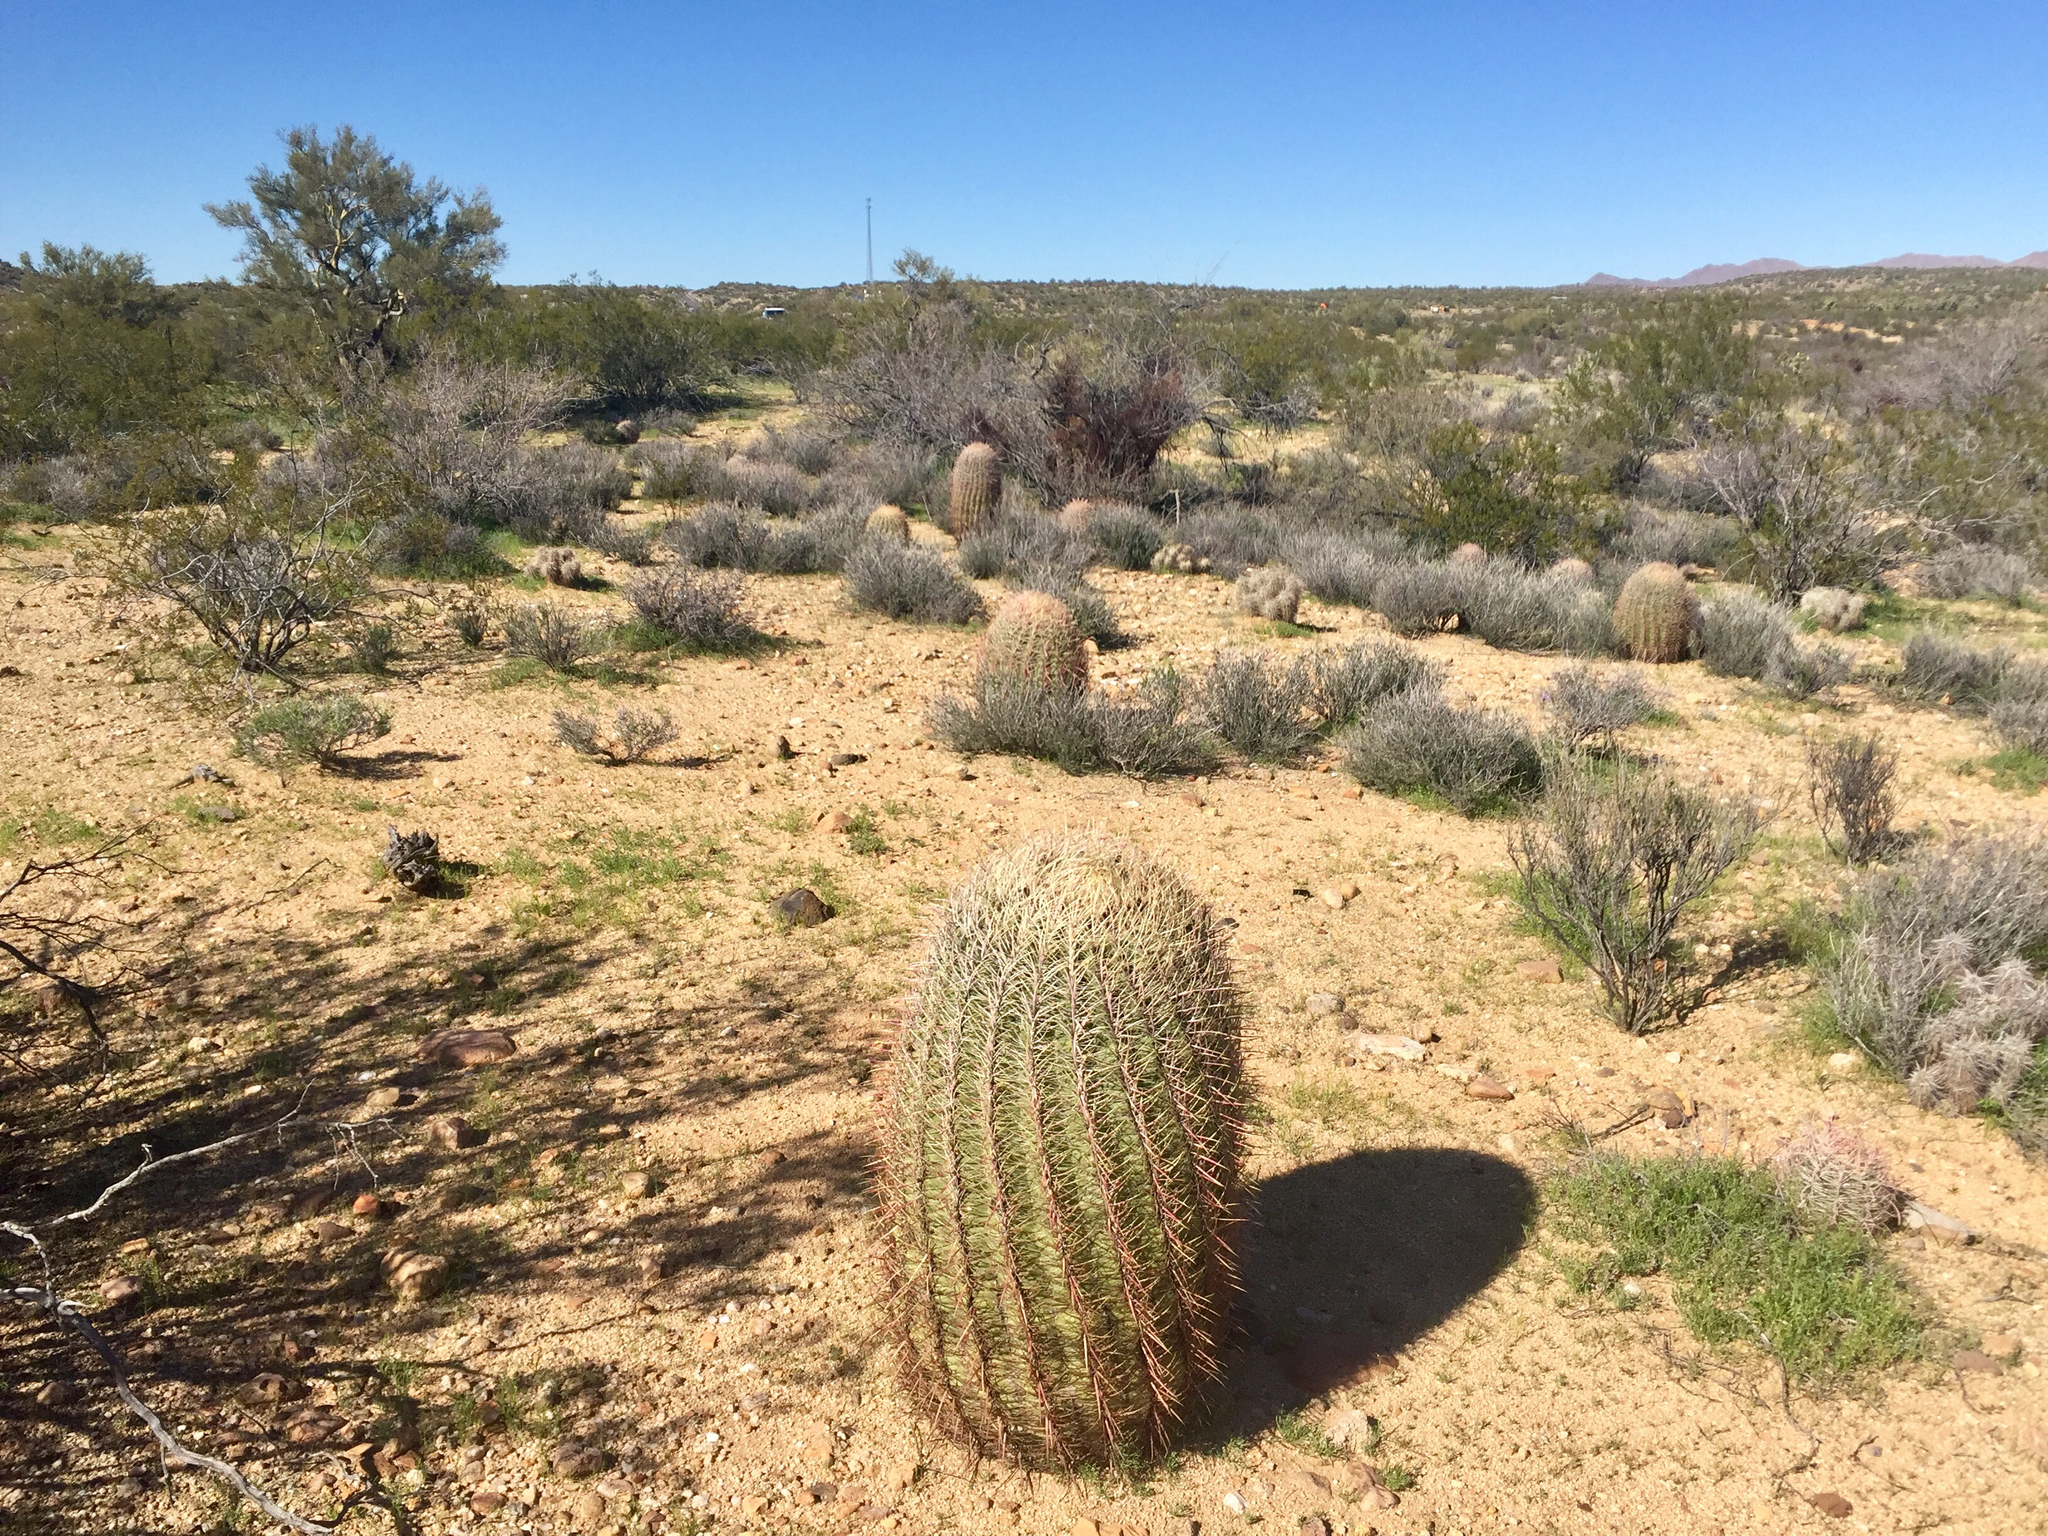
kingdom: Plantae
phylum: Tracheophyta
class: Magnoliopsida
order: Caryophyllales
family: Cactaceae
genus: Ferocactus
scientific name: Ferocactus cylindraceus
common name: California barrel cactus
